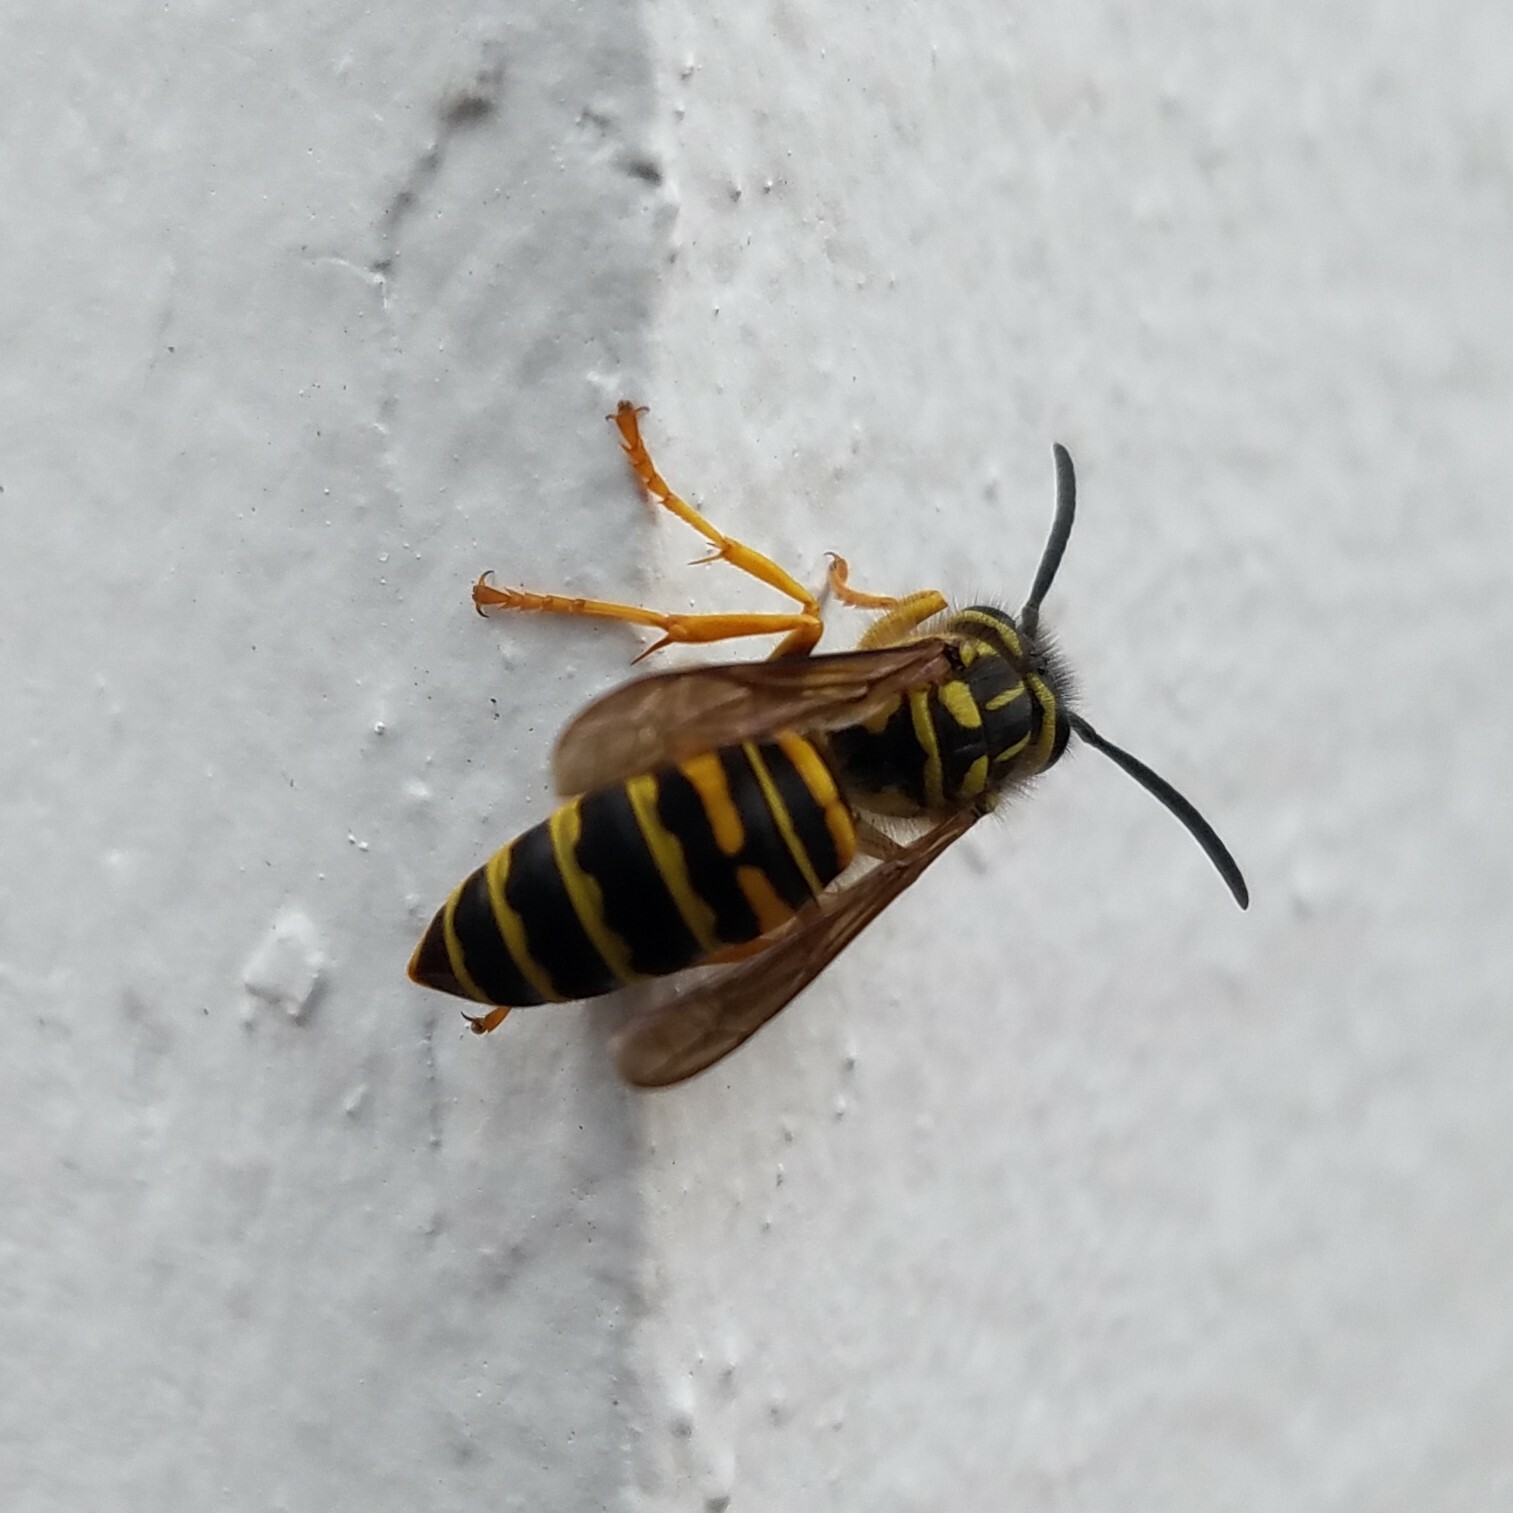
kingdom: Animalia
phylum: Arthropoda
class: Insecta
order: Hymenoptera
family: Vespidae
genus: Vespula
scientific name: Vespula squamosa
